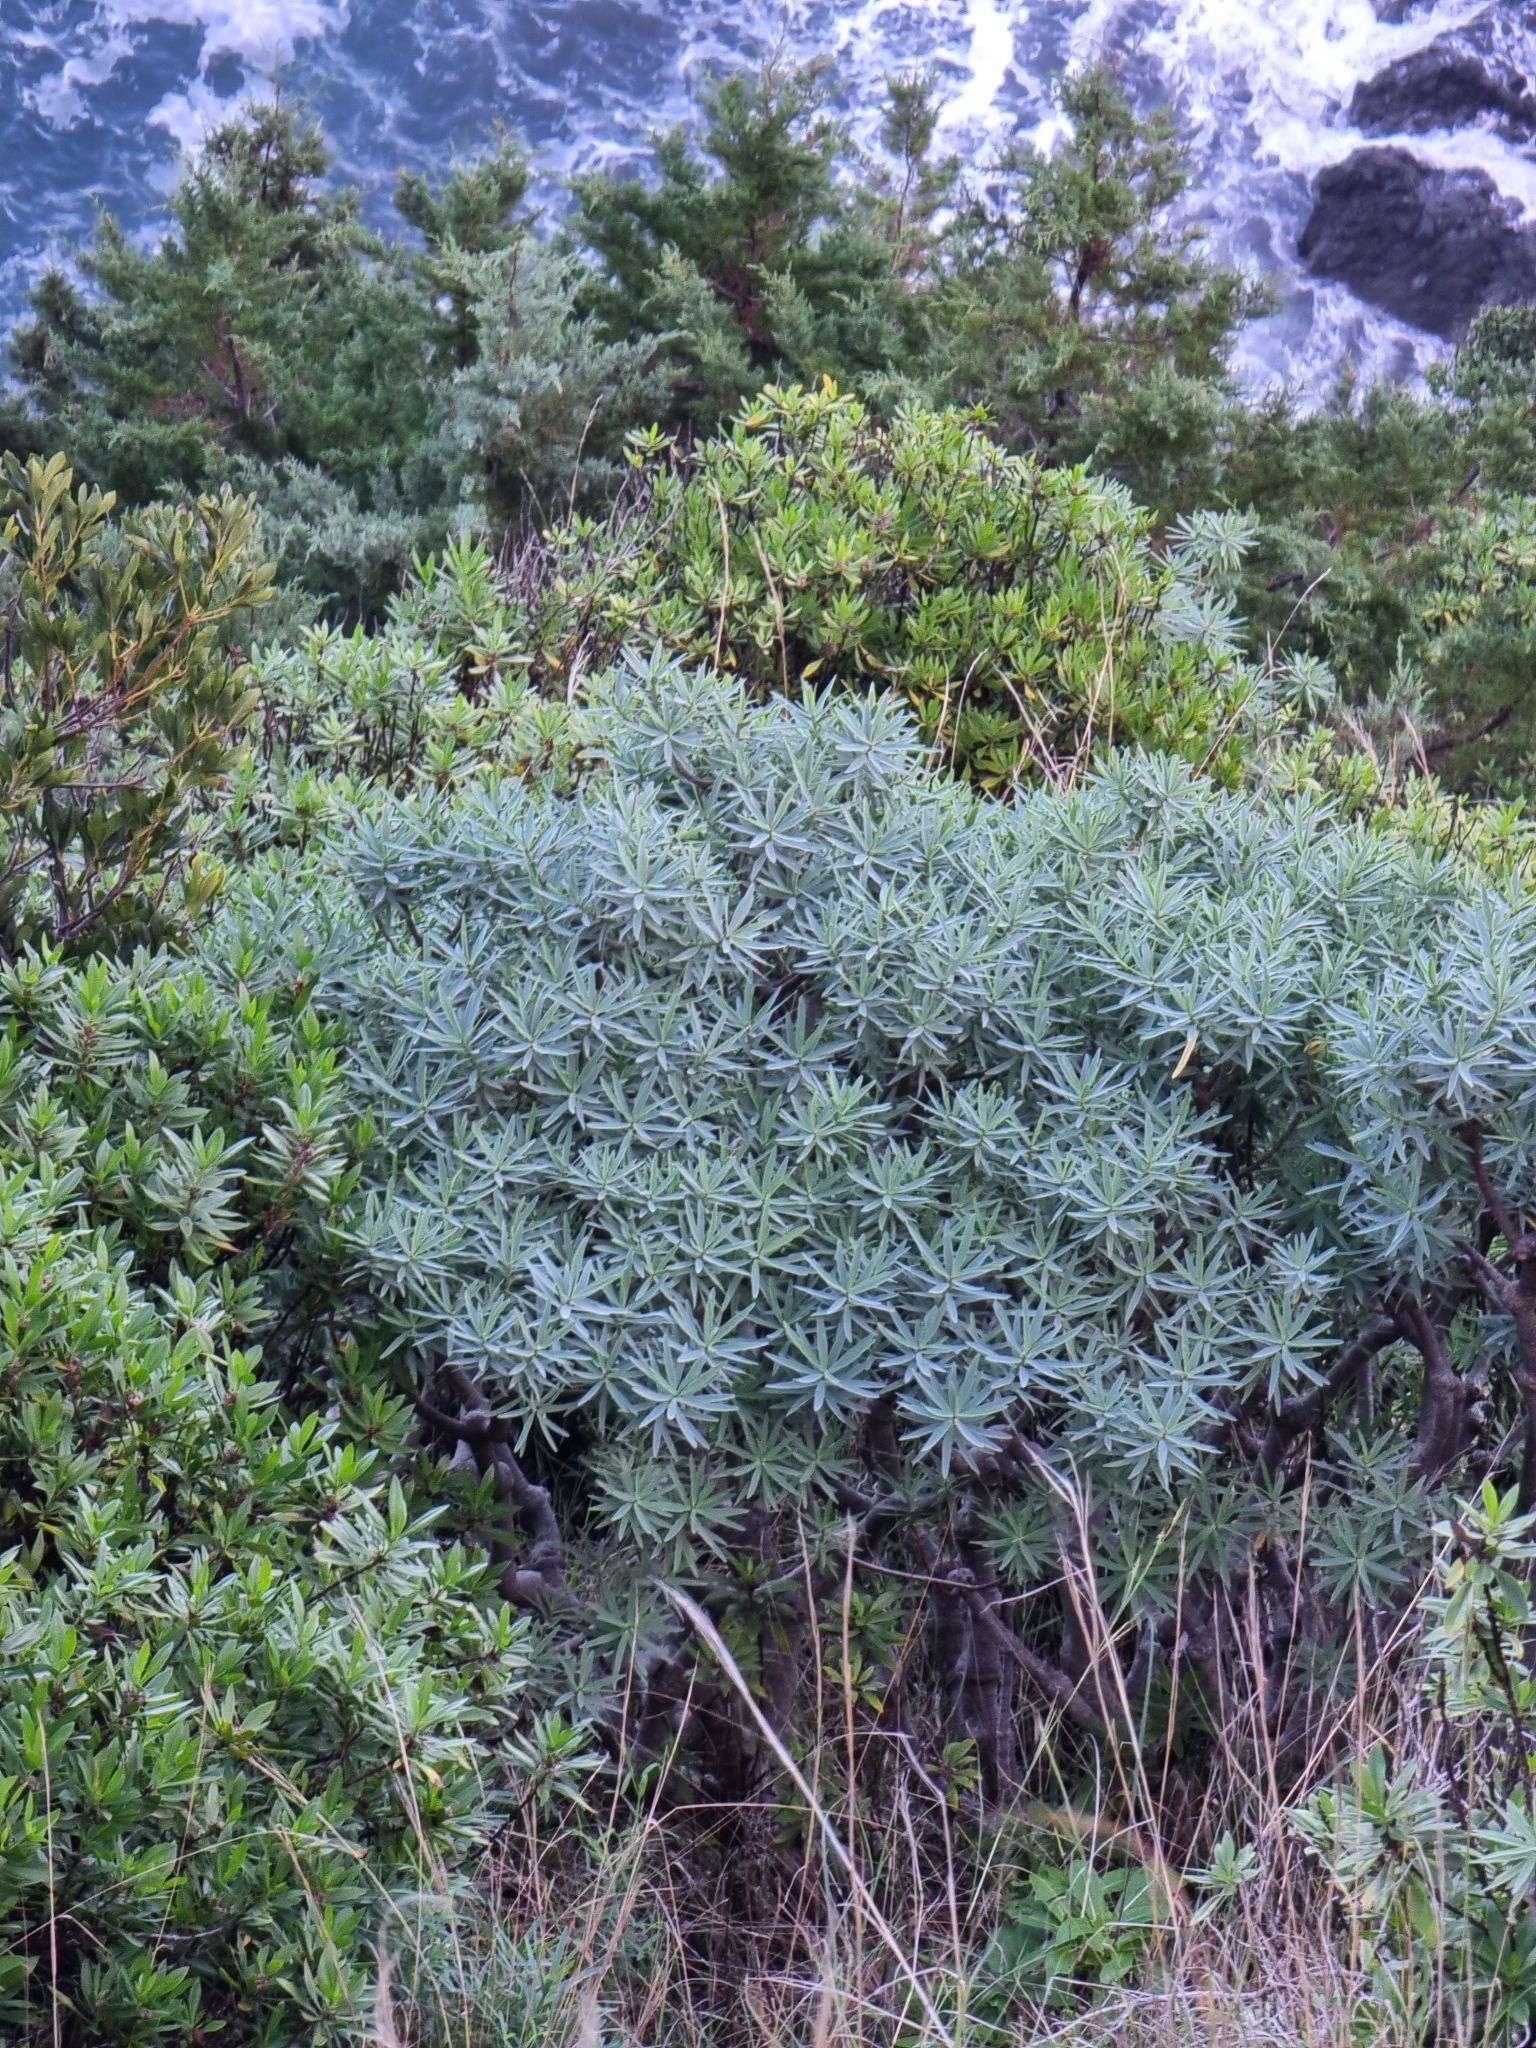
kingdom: Plantae
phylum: Tracheophyta
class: Magnoliopsida
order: Malpighiales
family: Euphorbiaceae
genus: Euphorbia
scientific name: Euphorbia piscatoria
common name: Fish-stunning spurge
